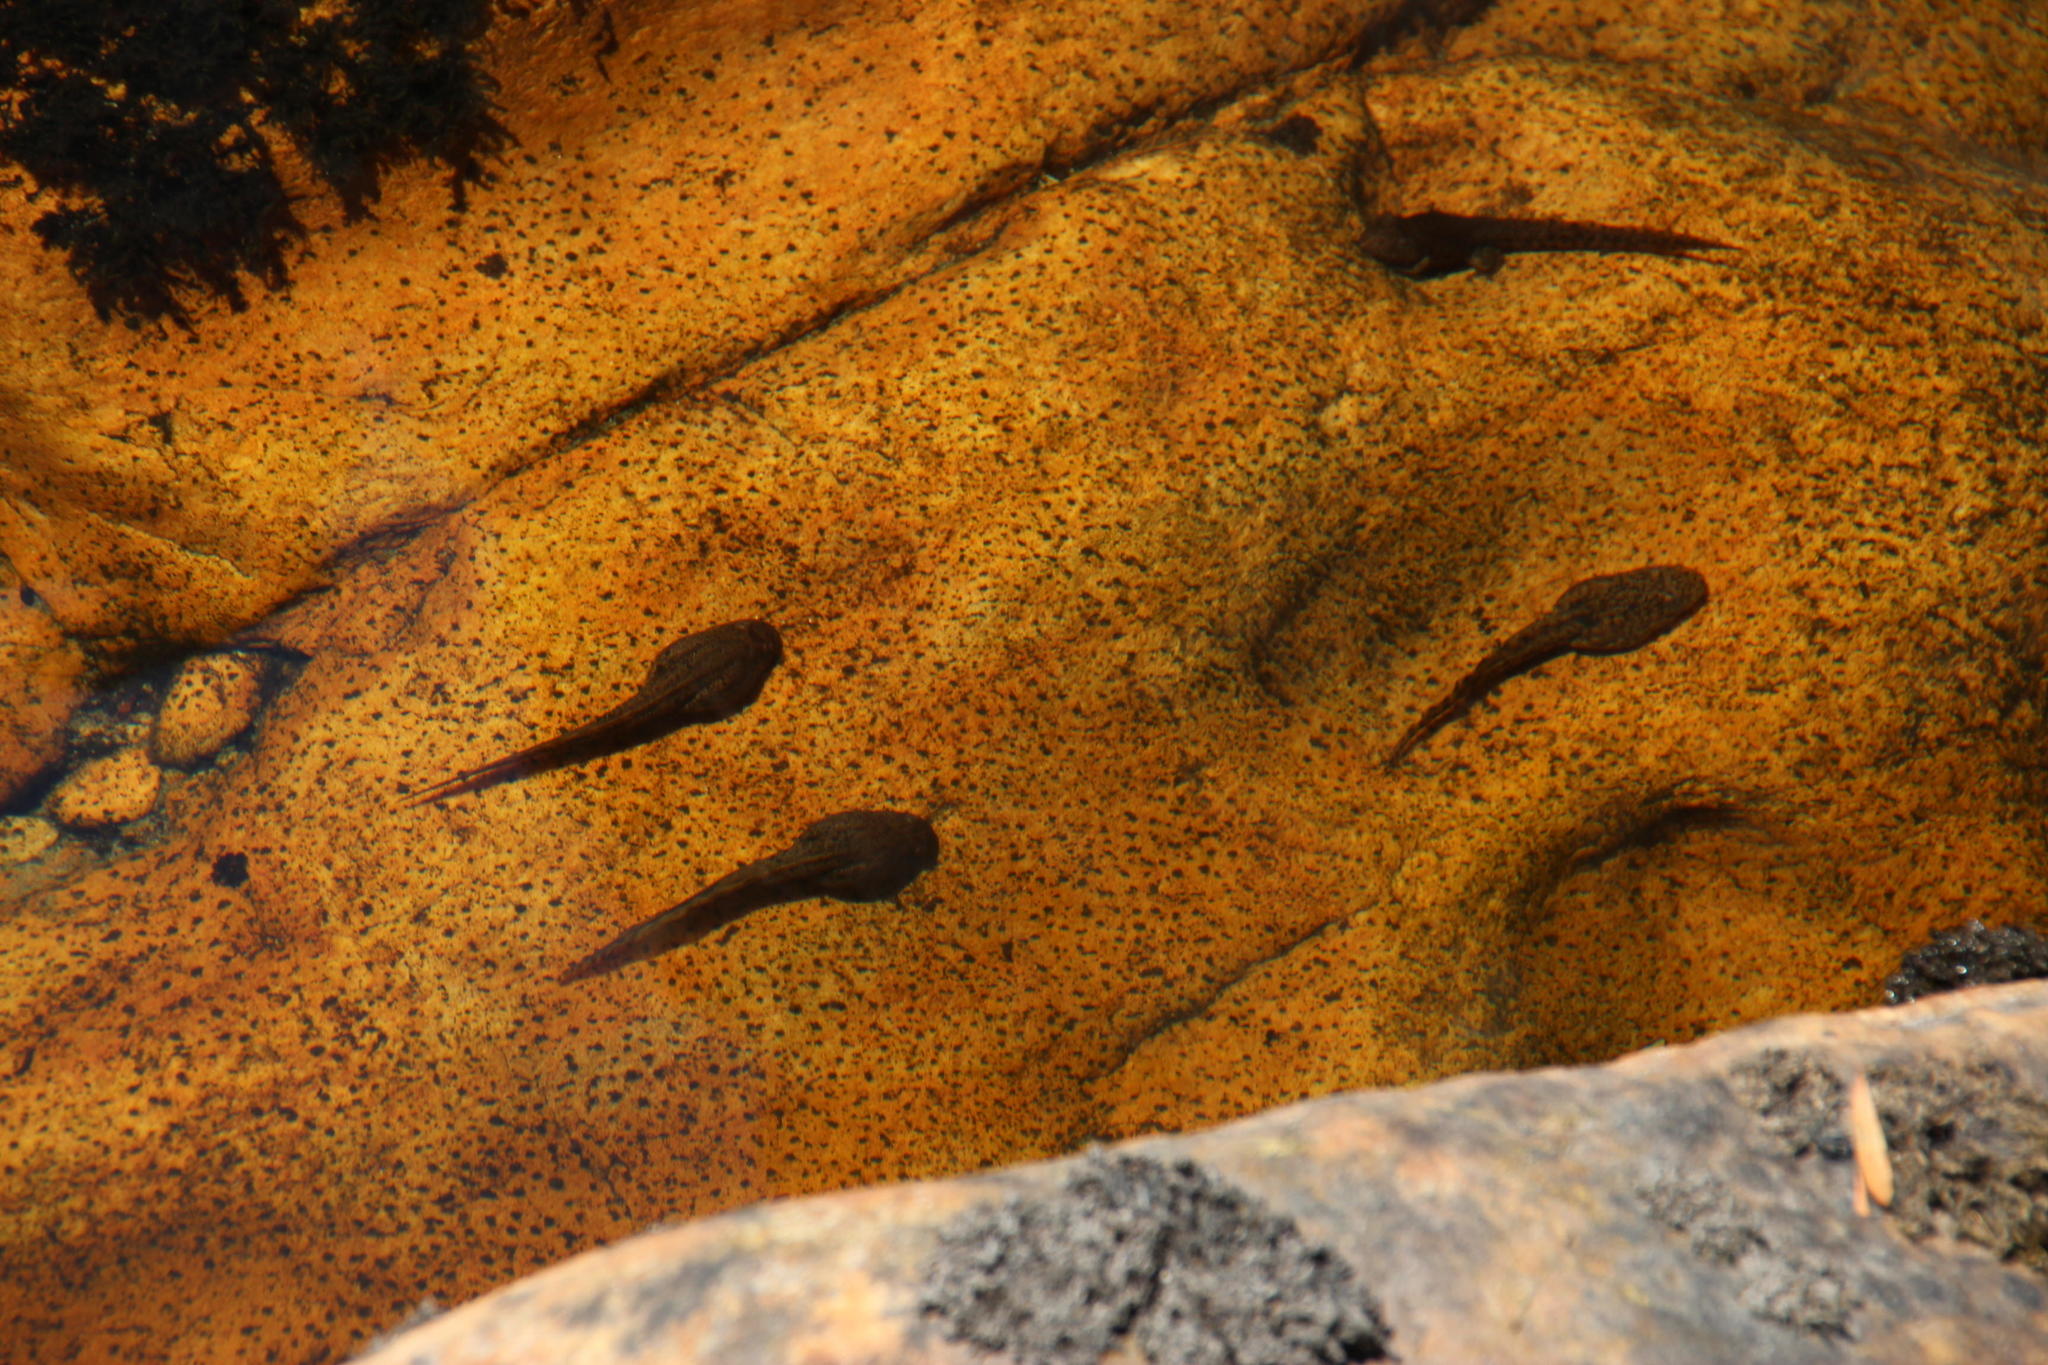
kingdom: Animalia
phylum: Chordata
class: Amphibia
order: Anura
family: Pyxicephalidae
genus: Amietia
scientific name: Amietia fuscigula
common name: Cape rana
